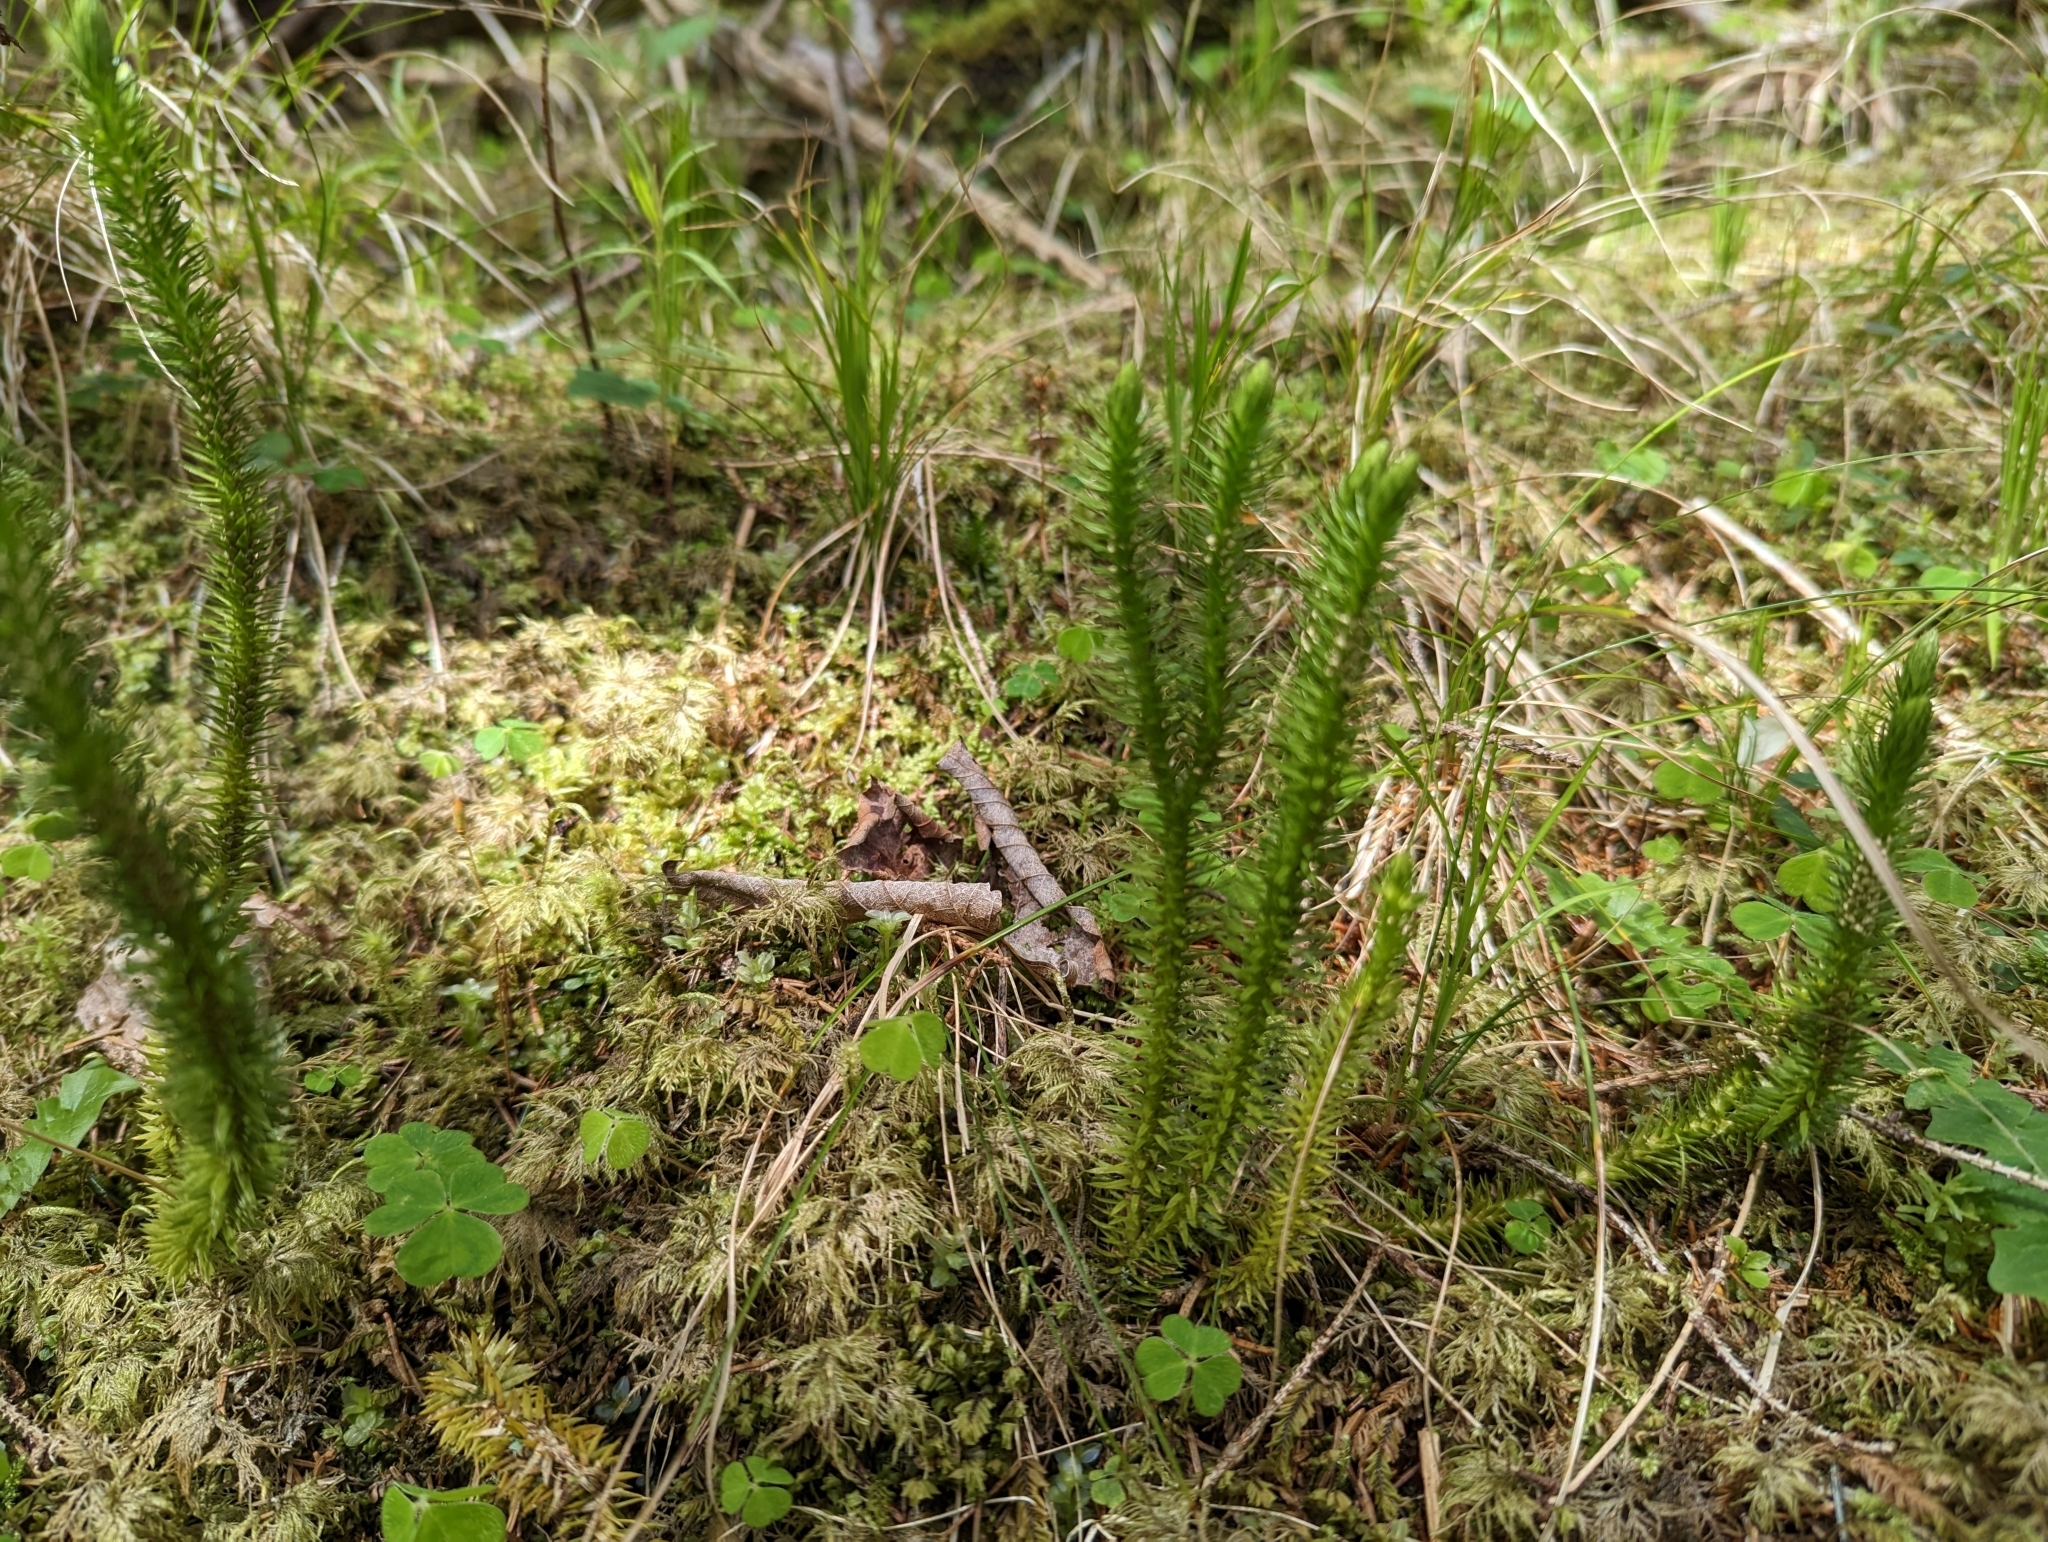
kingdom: Plantae
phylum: Tracheophyta
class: Lycopodiopsida
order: Lycopodiales
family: Lycopodiaceae
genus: Huperzia
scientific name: Huperzia selago
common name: Northern firmoss
